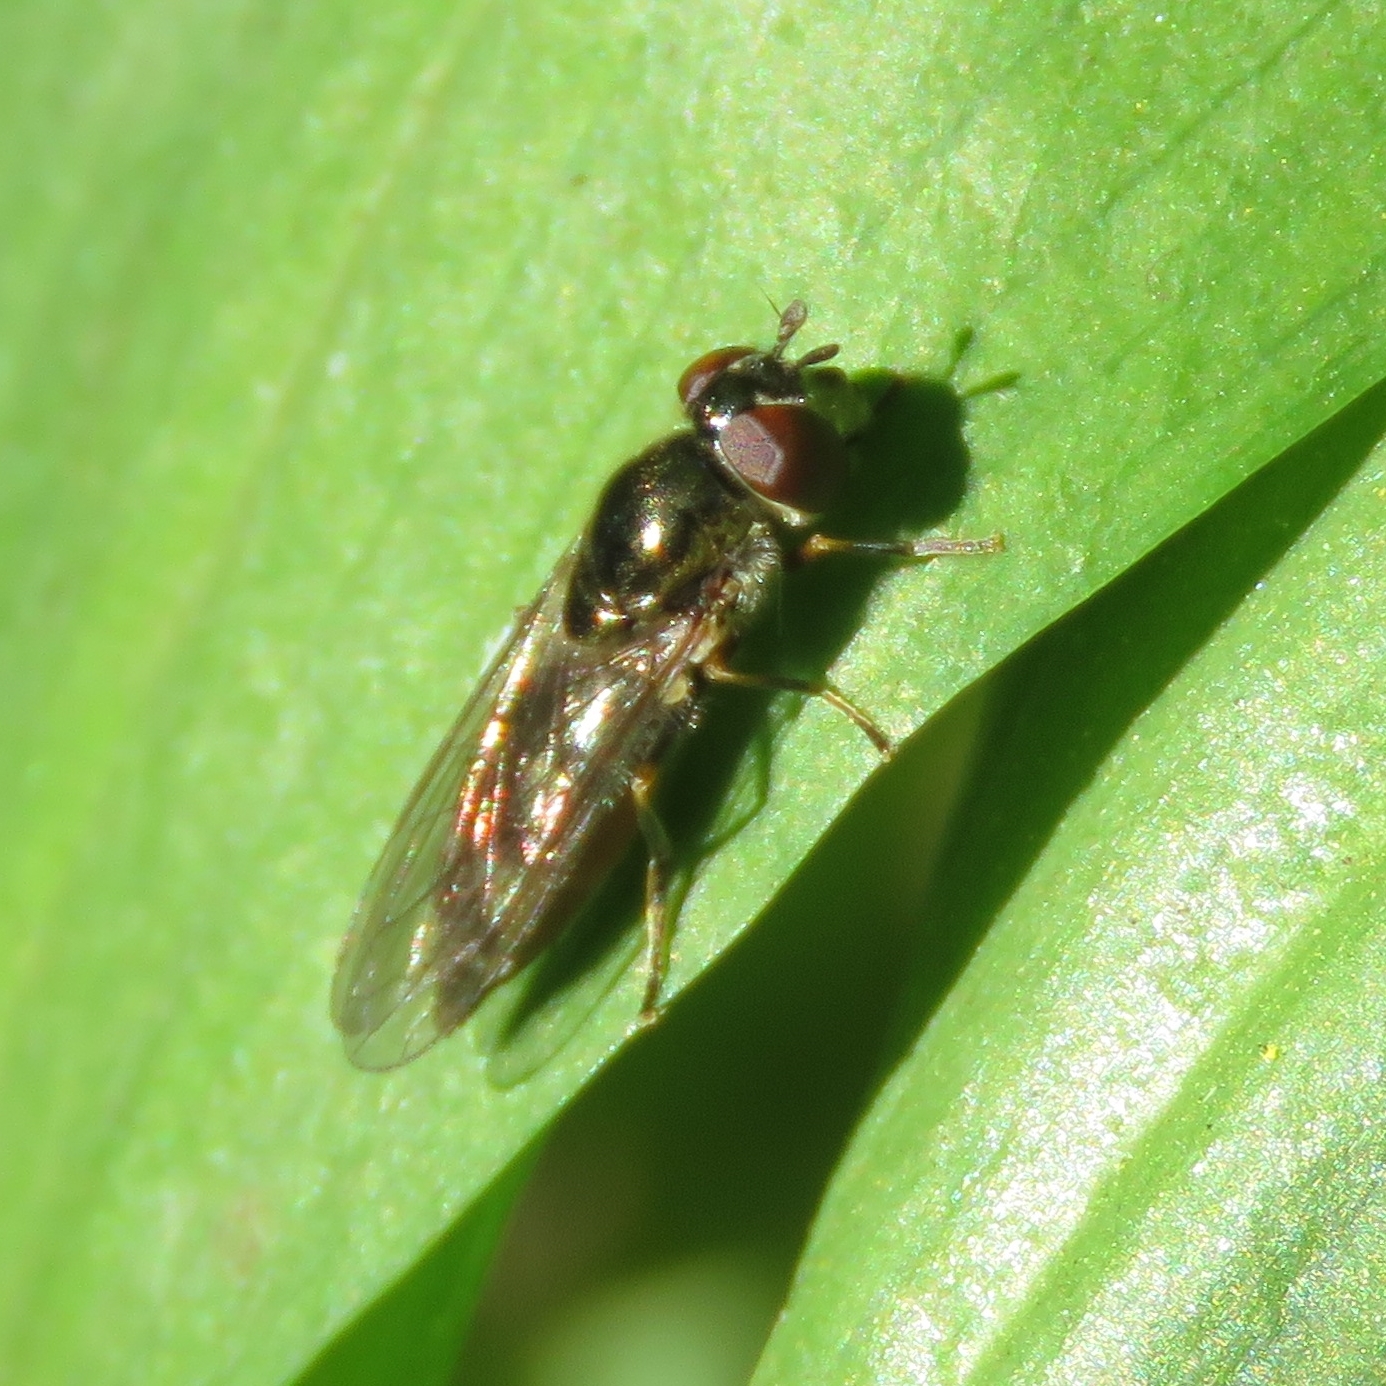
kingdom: Animalia
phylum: Arthropoda
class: Insecta
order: Diptera
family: Syrphidae
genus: Platycheirus
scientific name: Platycheirus albimanus
